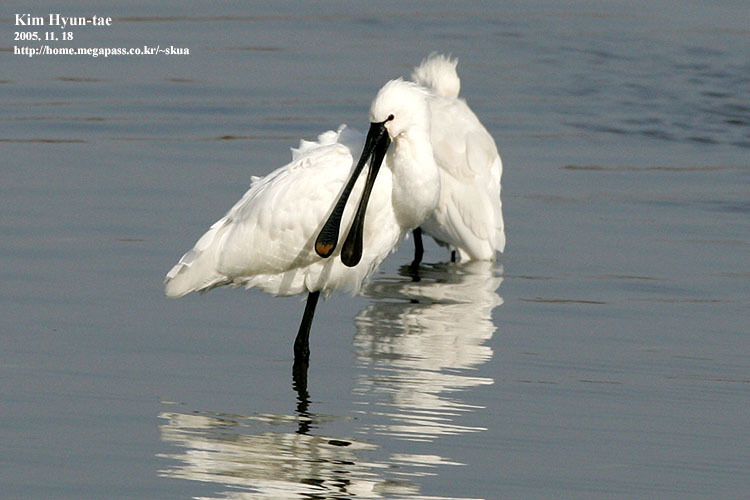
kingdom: Animalia
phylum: Chordata
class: Aves
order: Pelecaniformes
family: Threskiornithidae
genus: Platalea
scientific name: Platalea leucorodia
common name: Eurasian spoonbill
